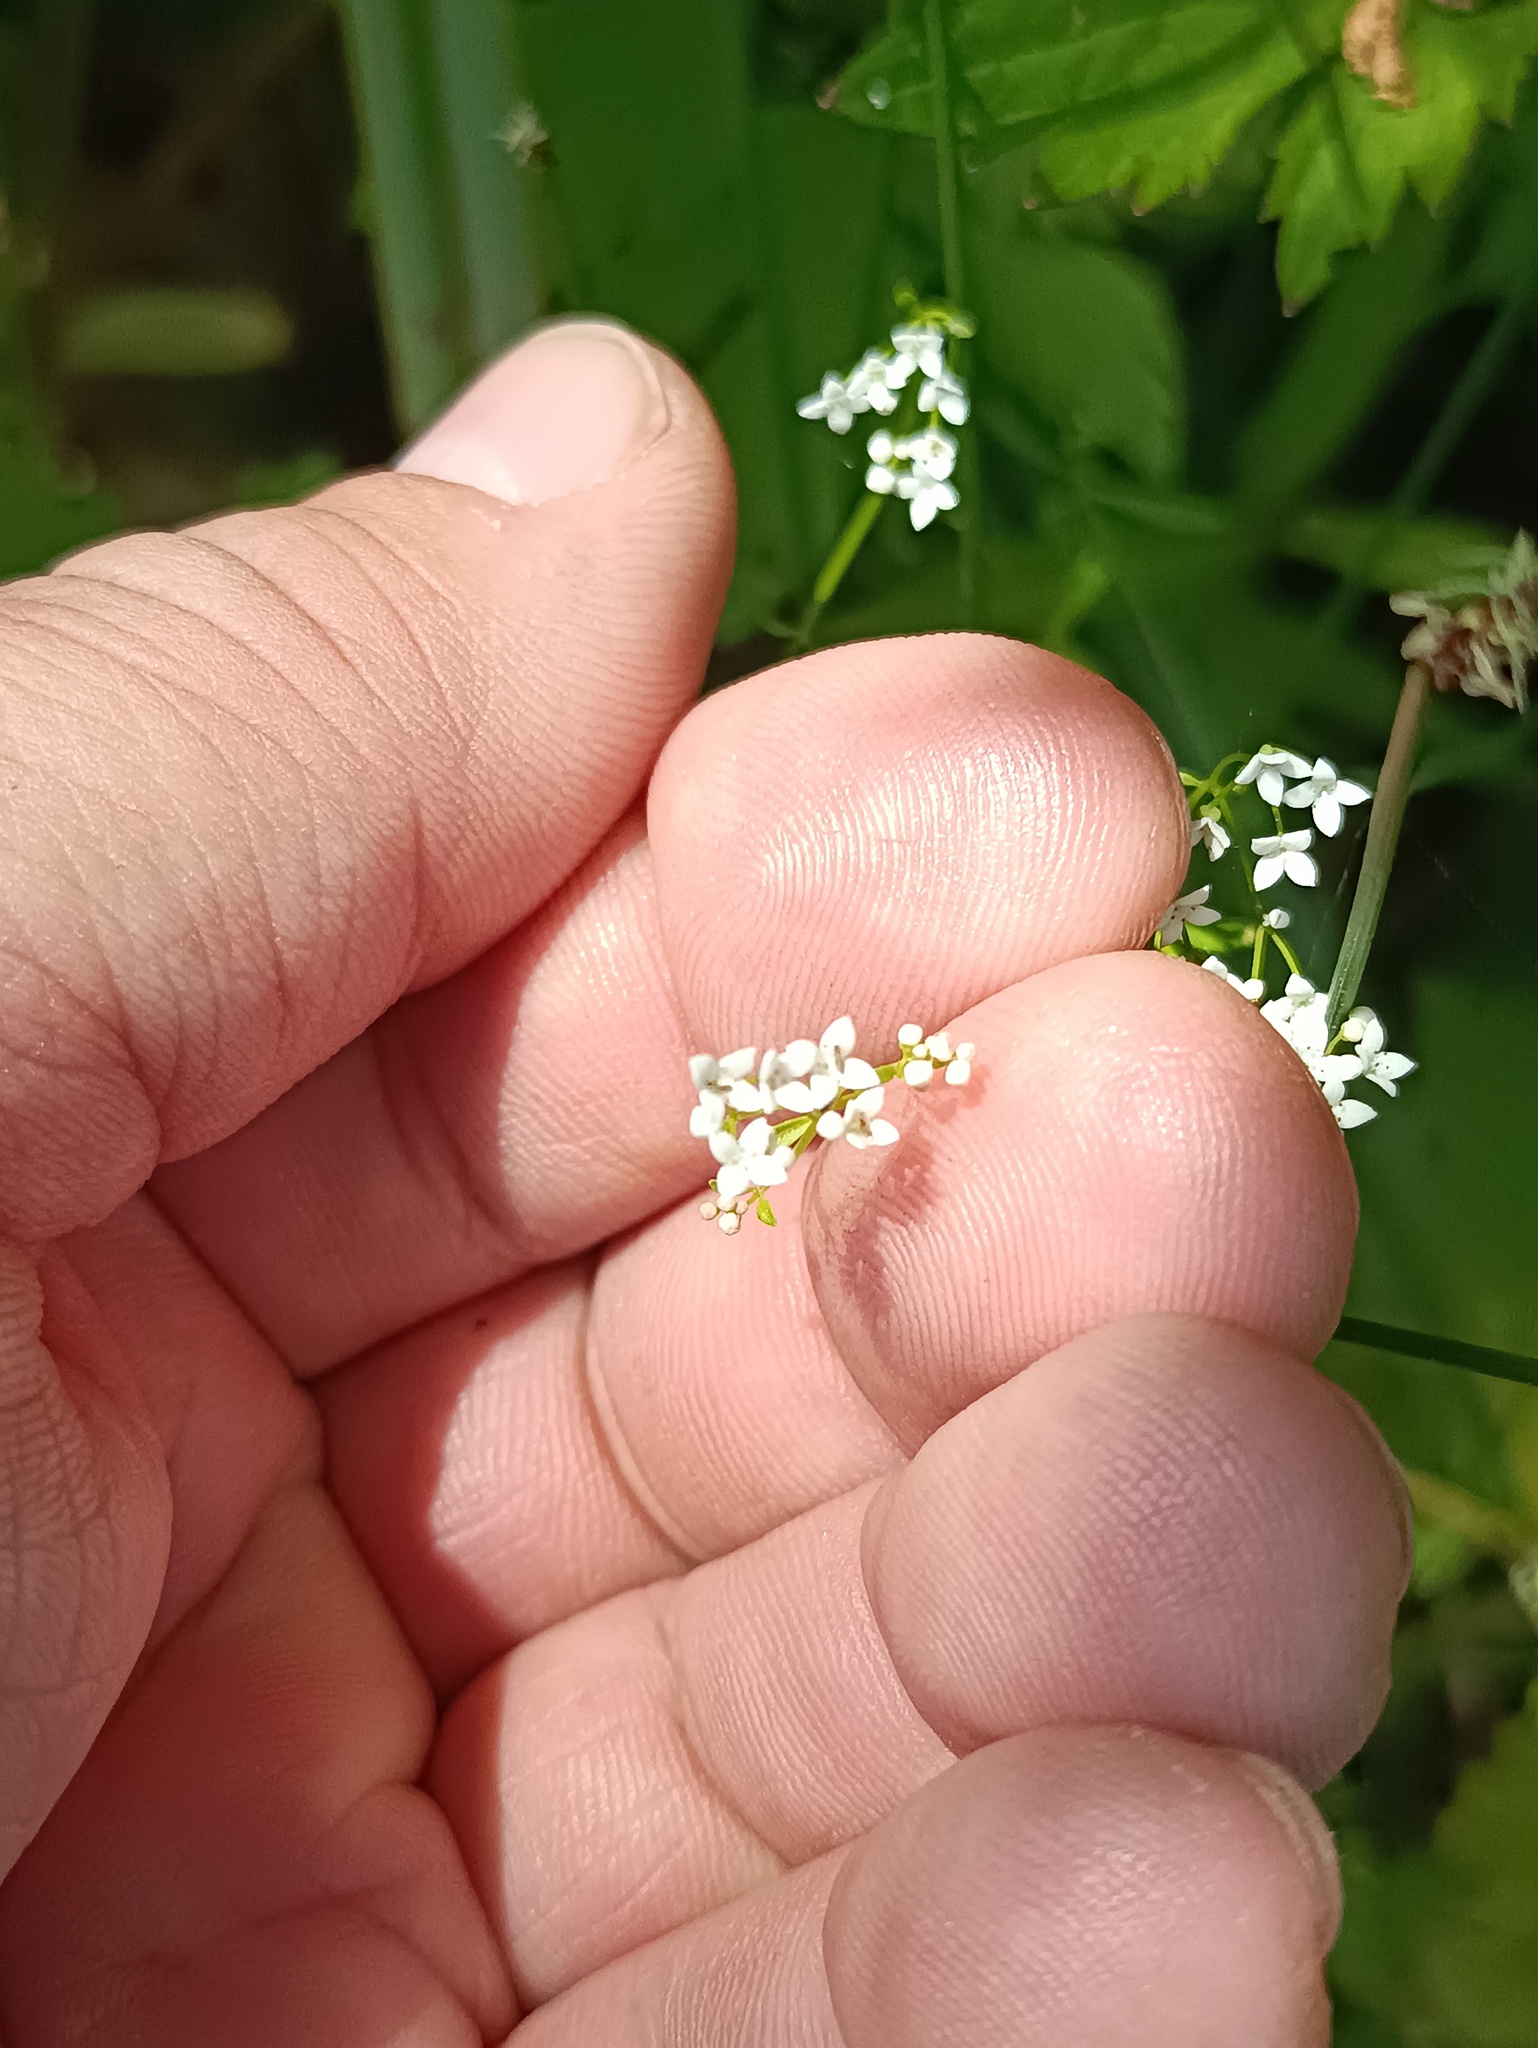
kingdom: Plantae
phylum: Tracheophyta
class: Magnoliopsida
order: Gentianales
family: Rubiaceae
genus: Galium
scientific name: Galium palustre
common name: Common marsh-bedstraw
